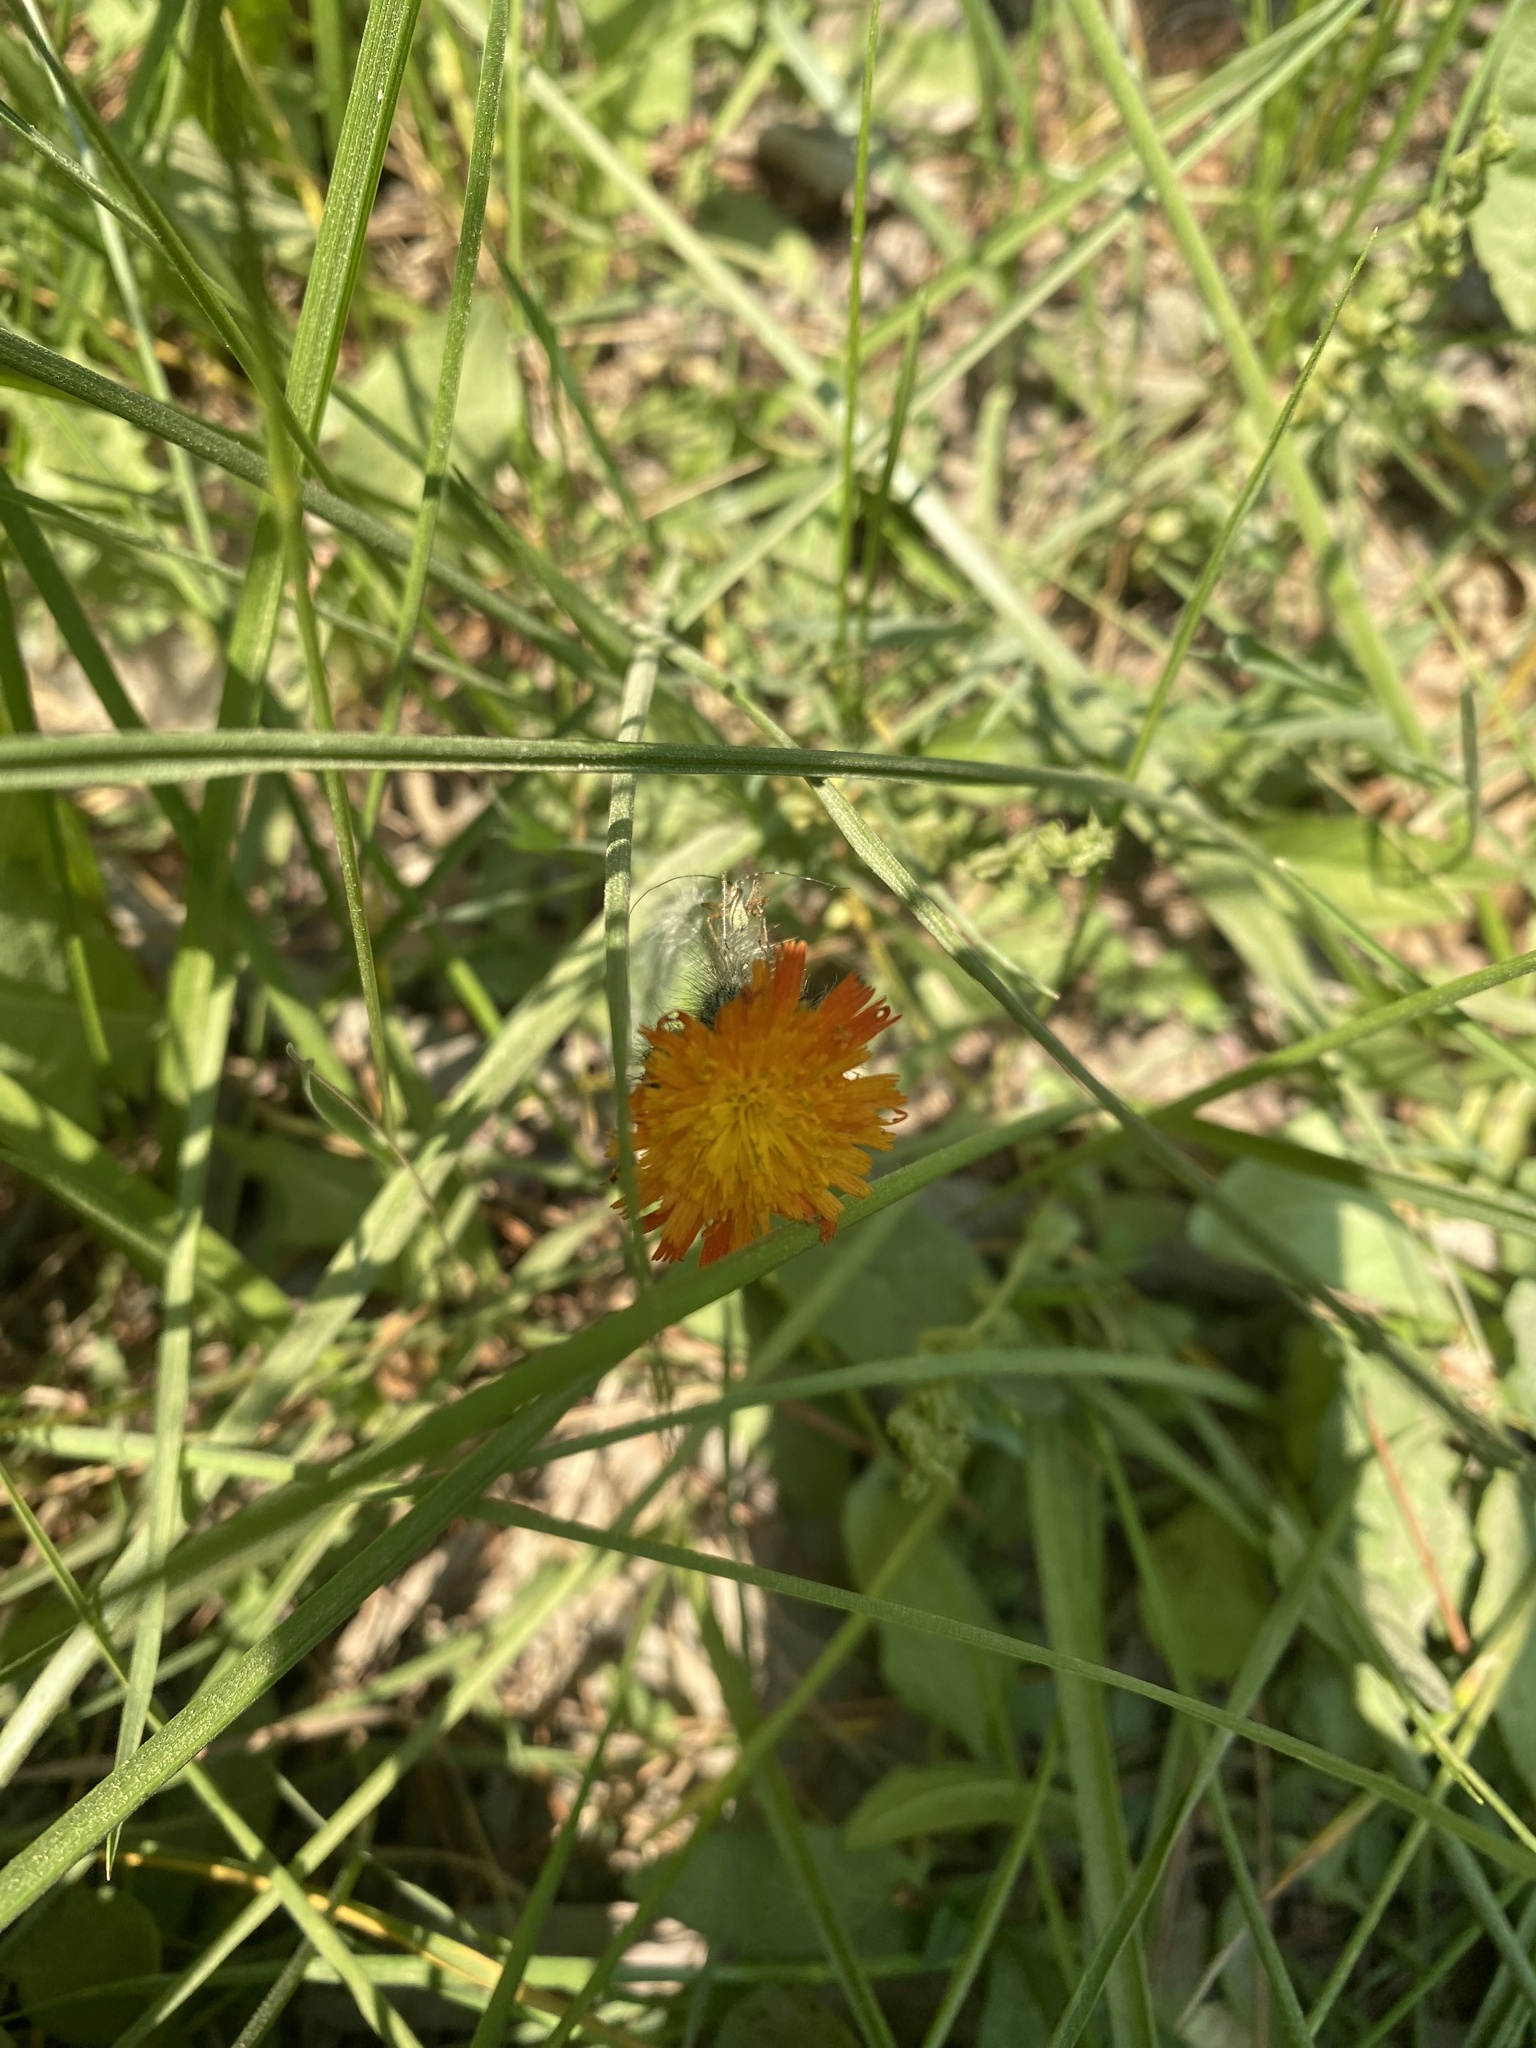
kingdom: Plantae
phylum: Tracheophyta
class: Magnoliopsida
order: Asterales
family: Asteraceae
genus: Pilosella
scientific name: Pilosella aurantiaca
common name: Fox-and-cubs
